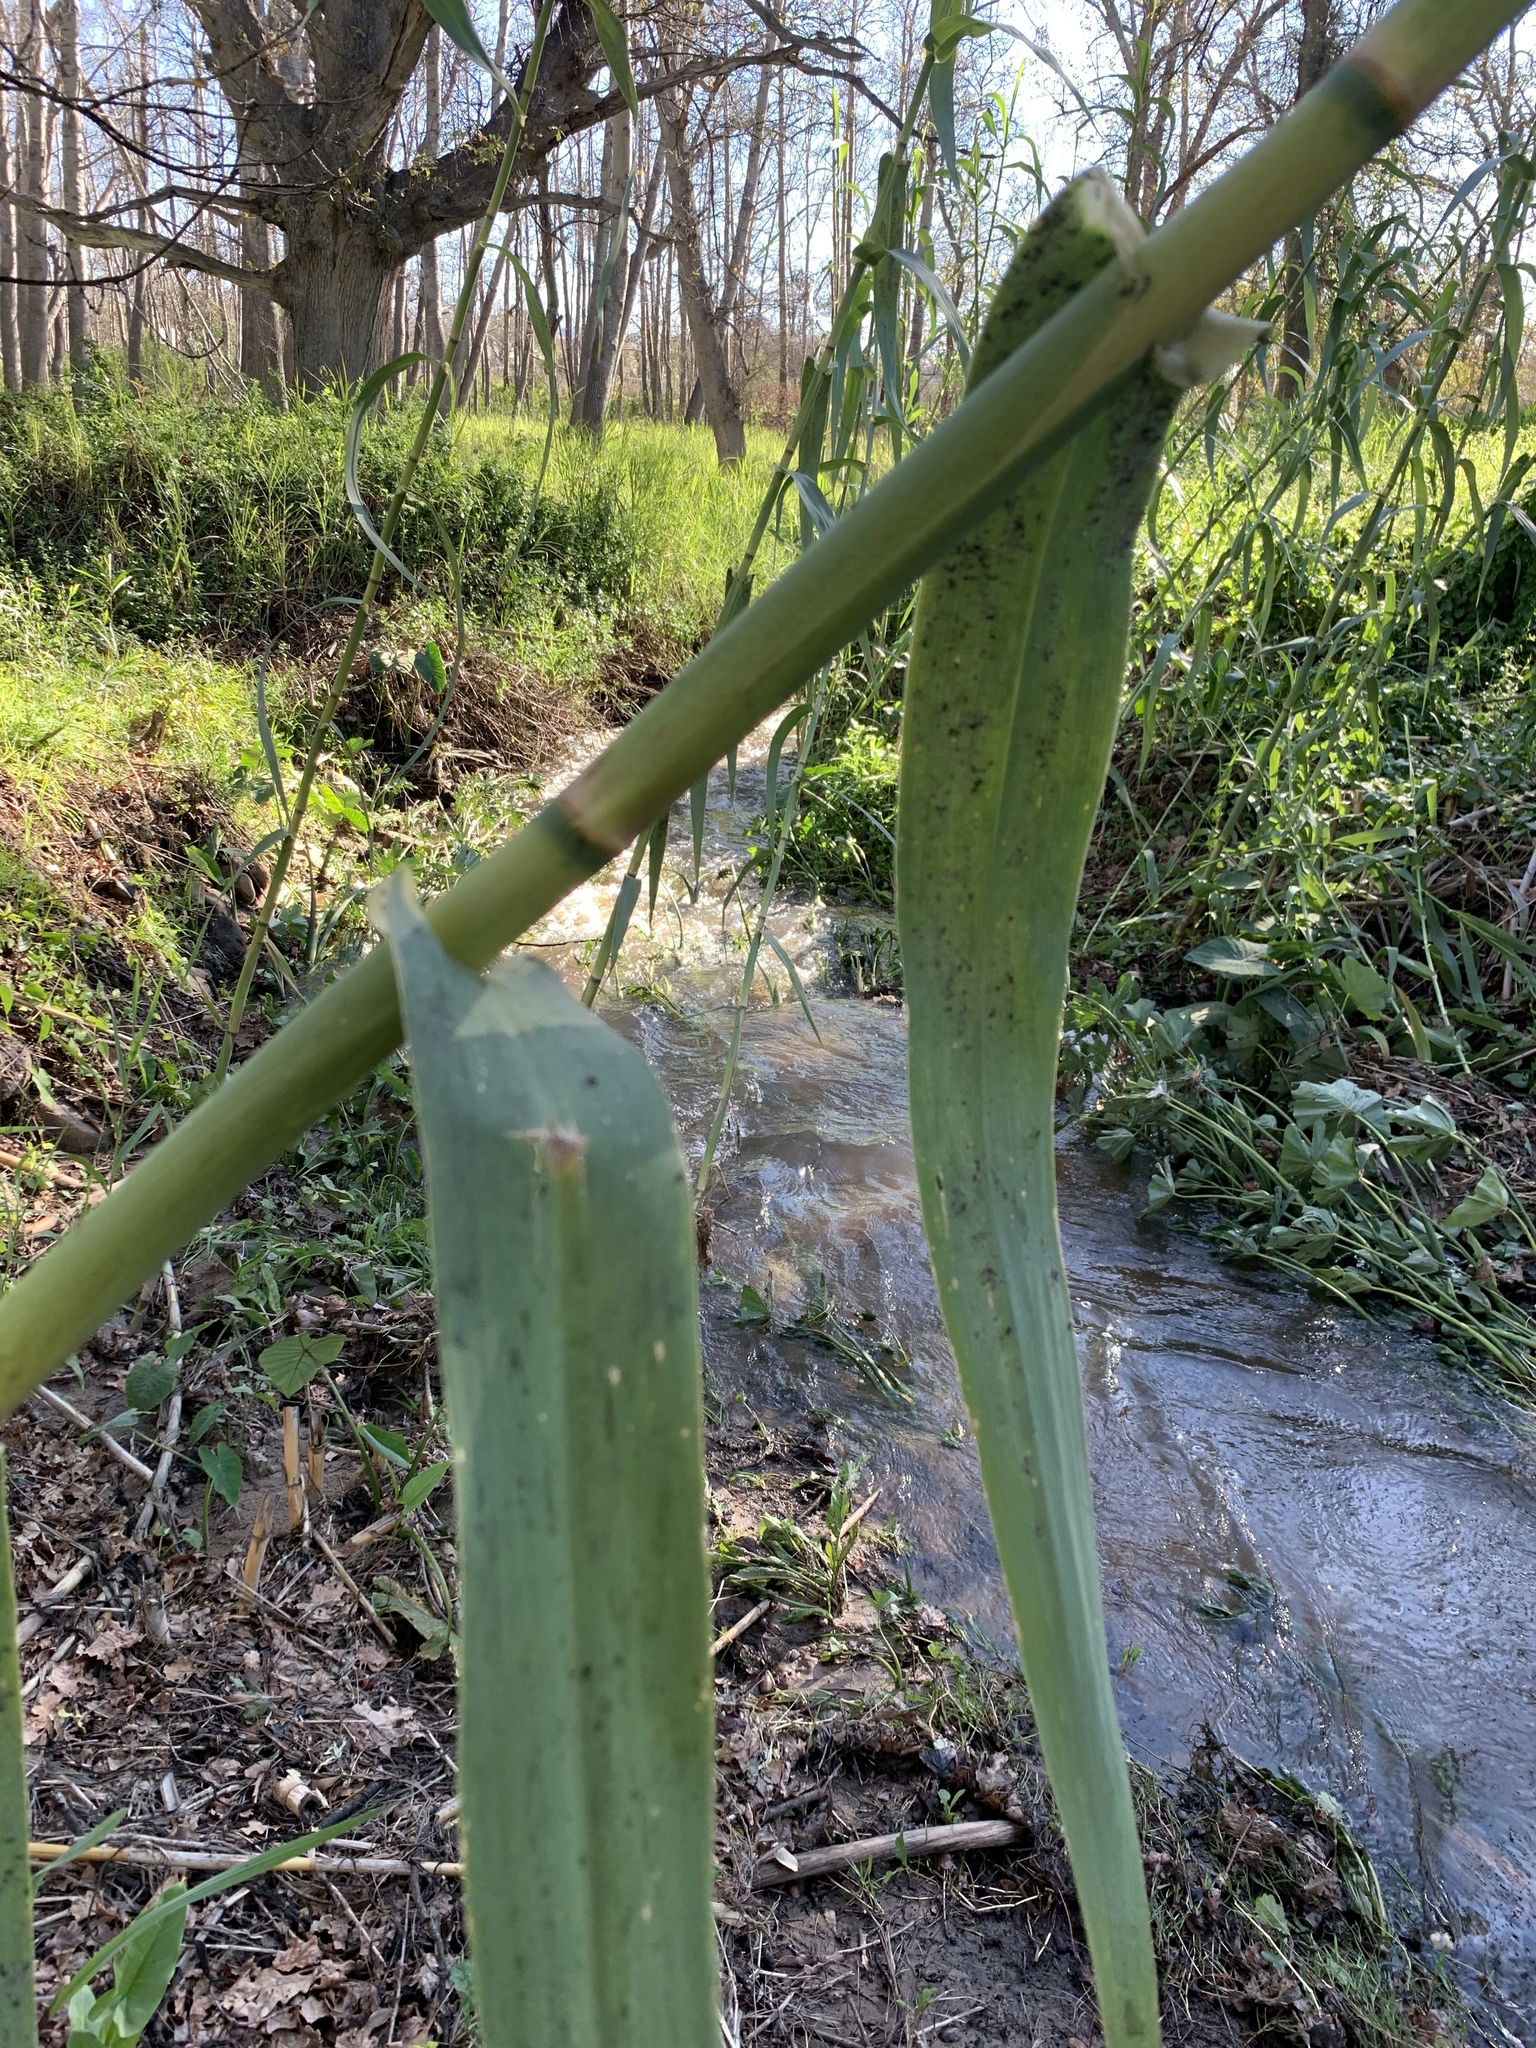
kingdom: Plantae
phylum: Tracheophyta
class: Liliopsida
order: Poales
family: Poaceae
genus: Arundo
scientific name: Arundo donax
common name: Giant reed
